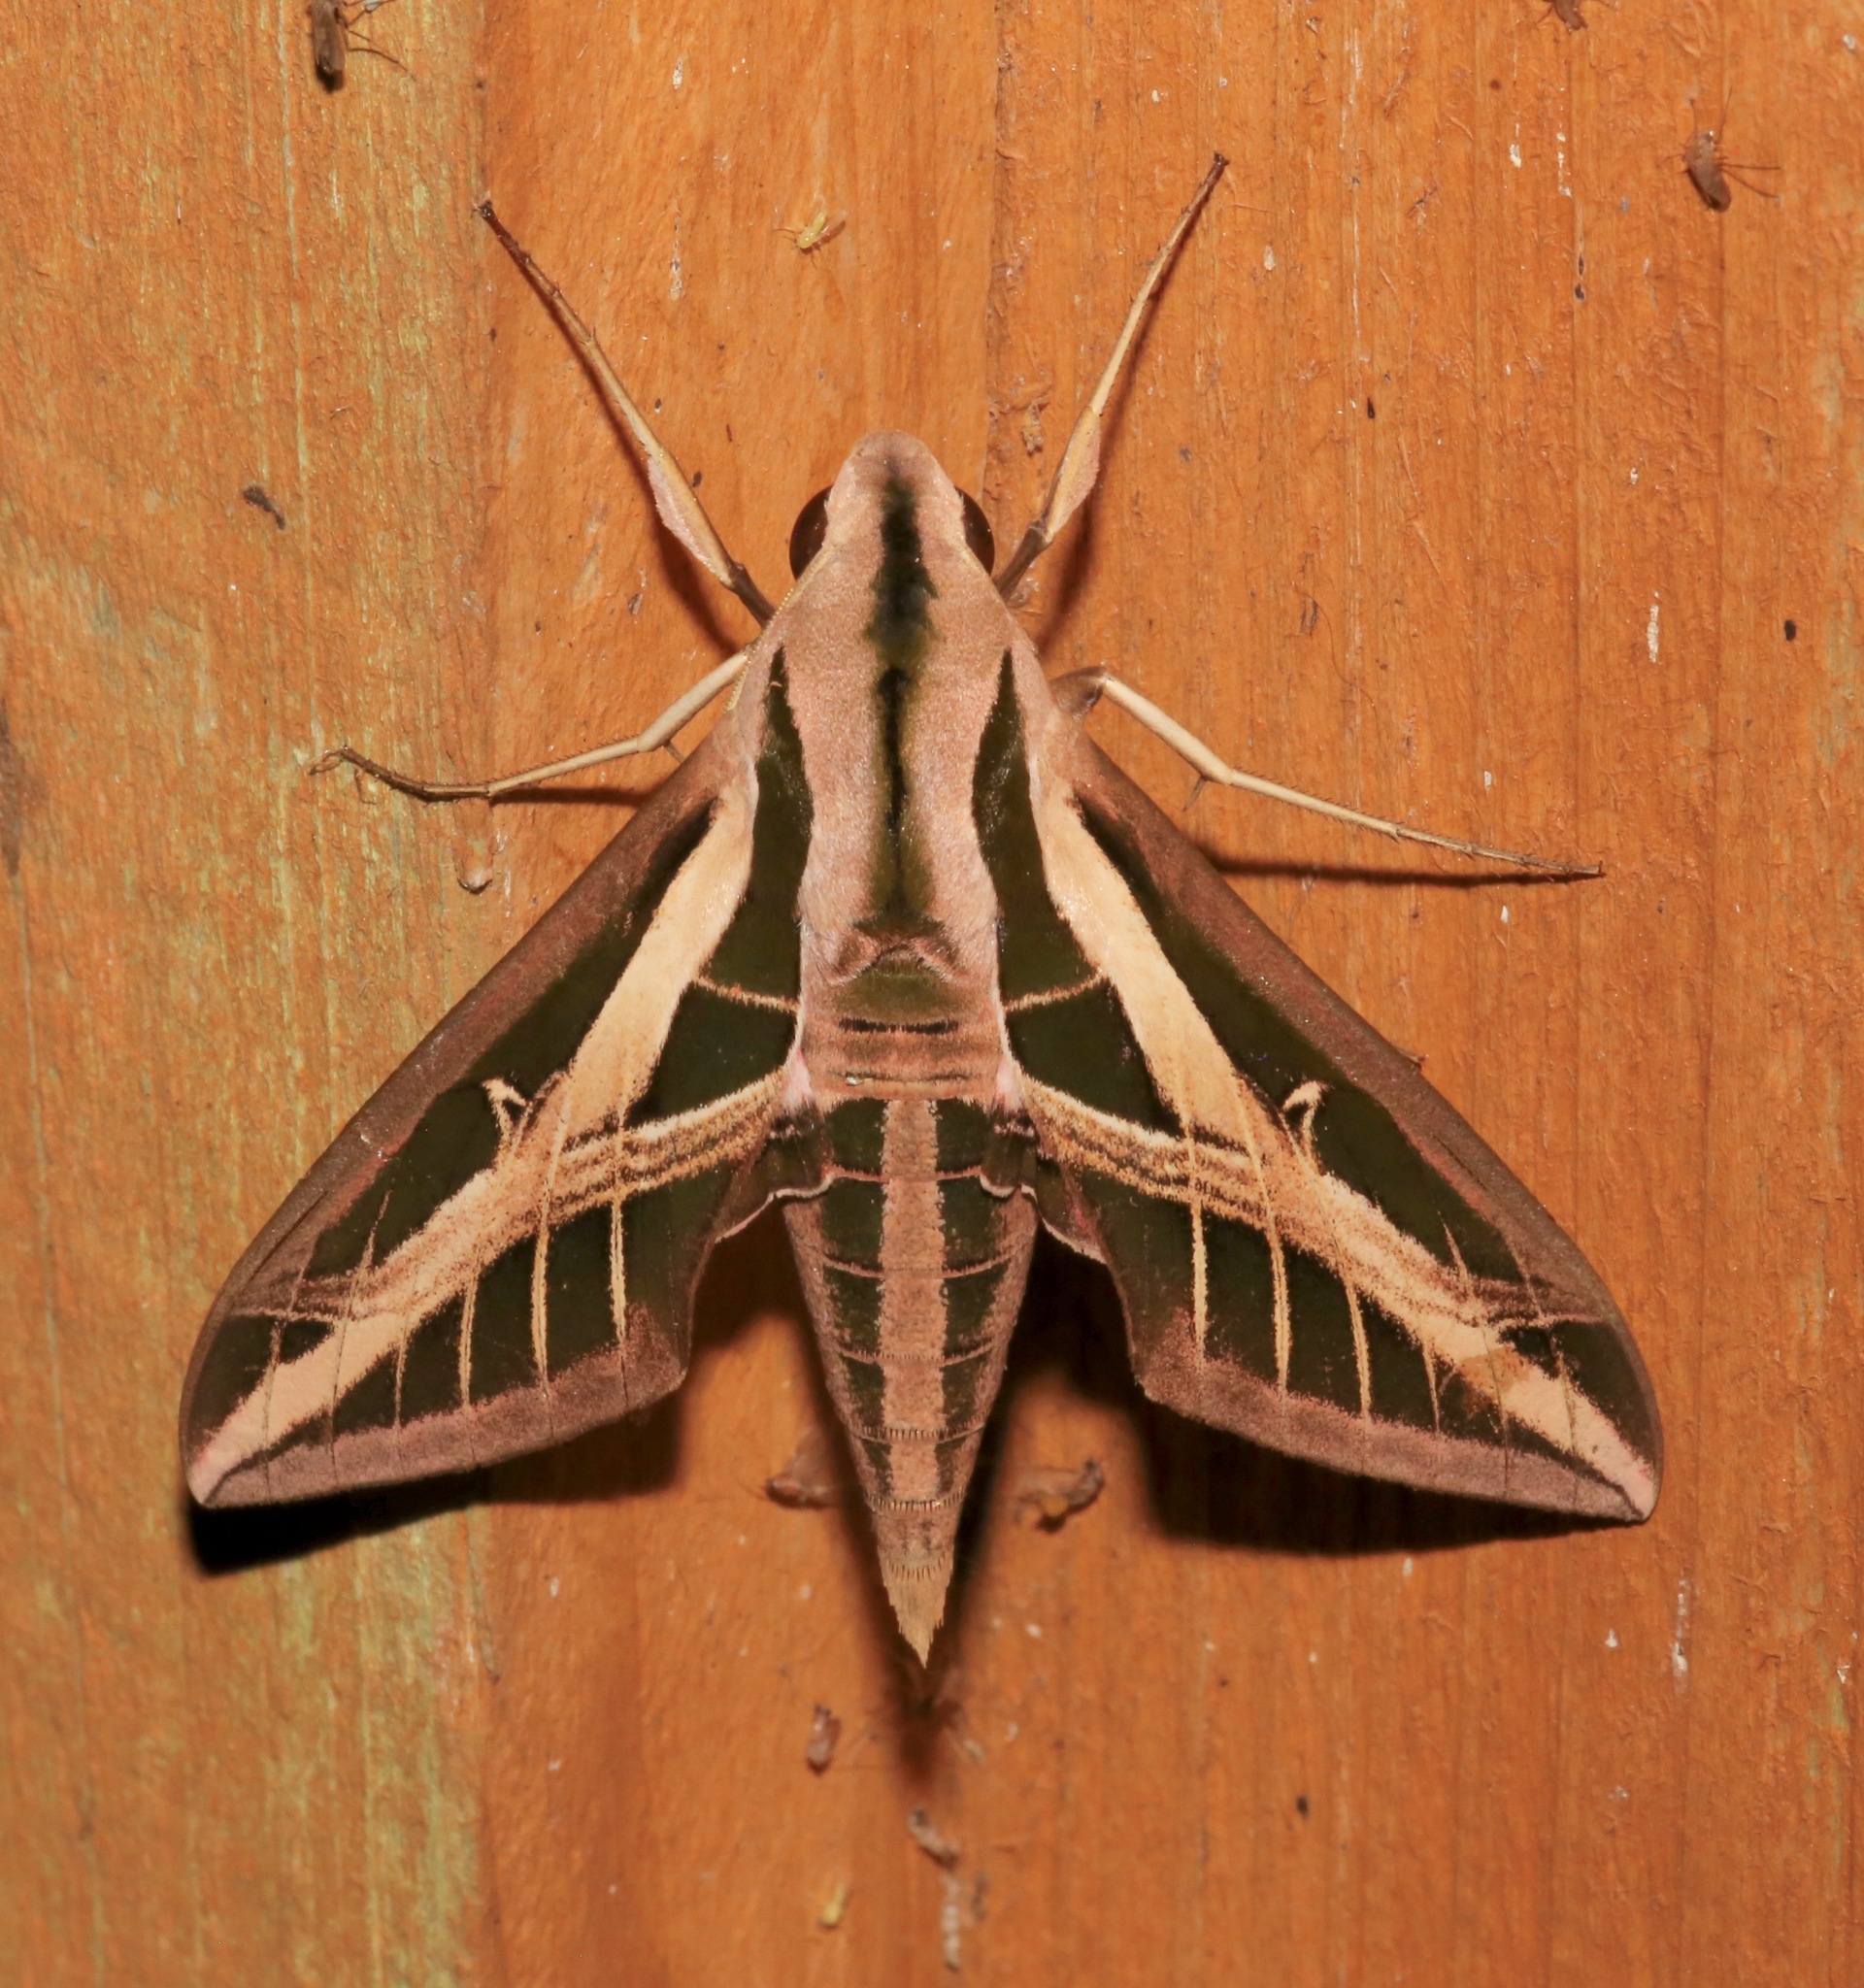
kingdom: Animalia
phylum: Arthropoda
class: Insecta
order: Lepidoptera
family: Sphingidae
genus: Eumorpha
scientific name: Eumorpha fasciatus
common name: Banded sphinx
